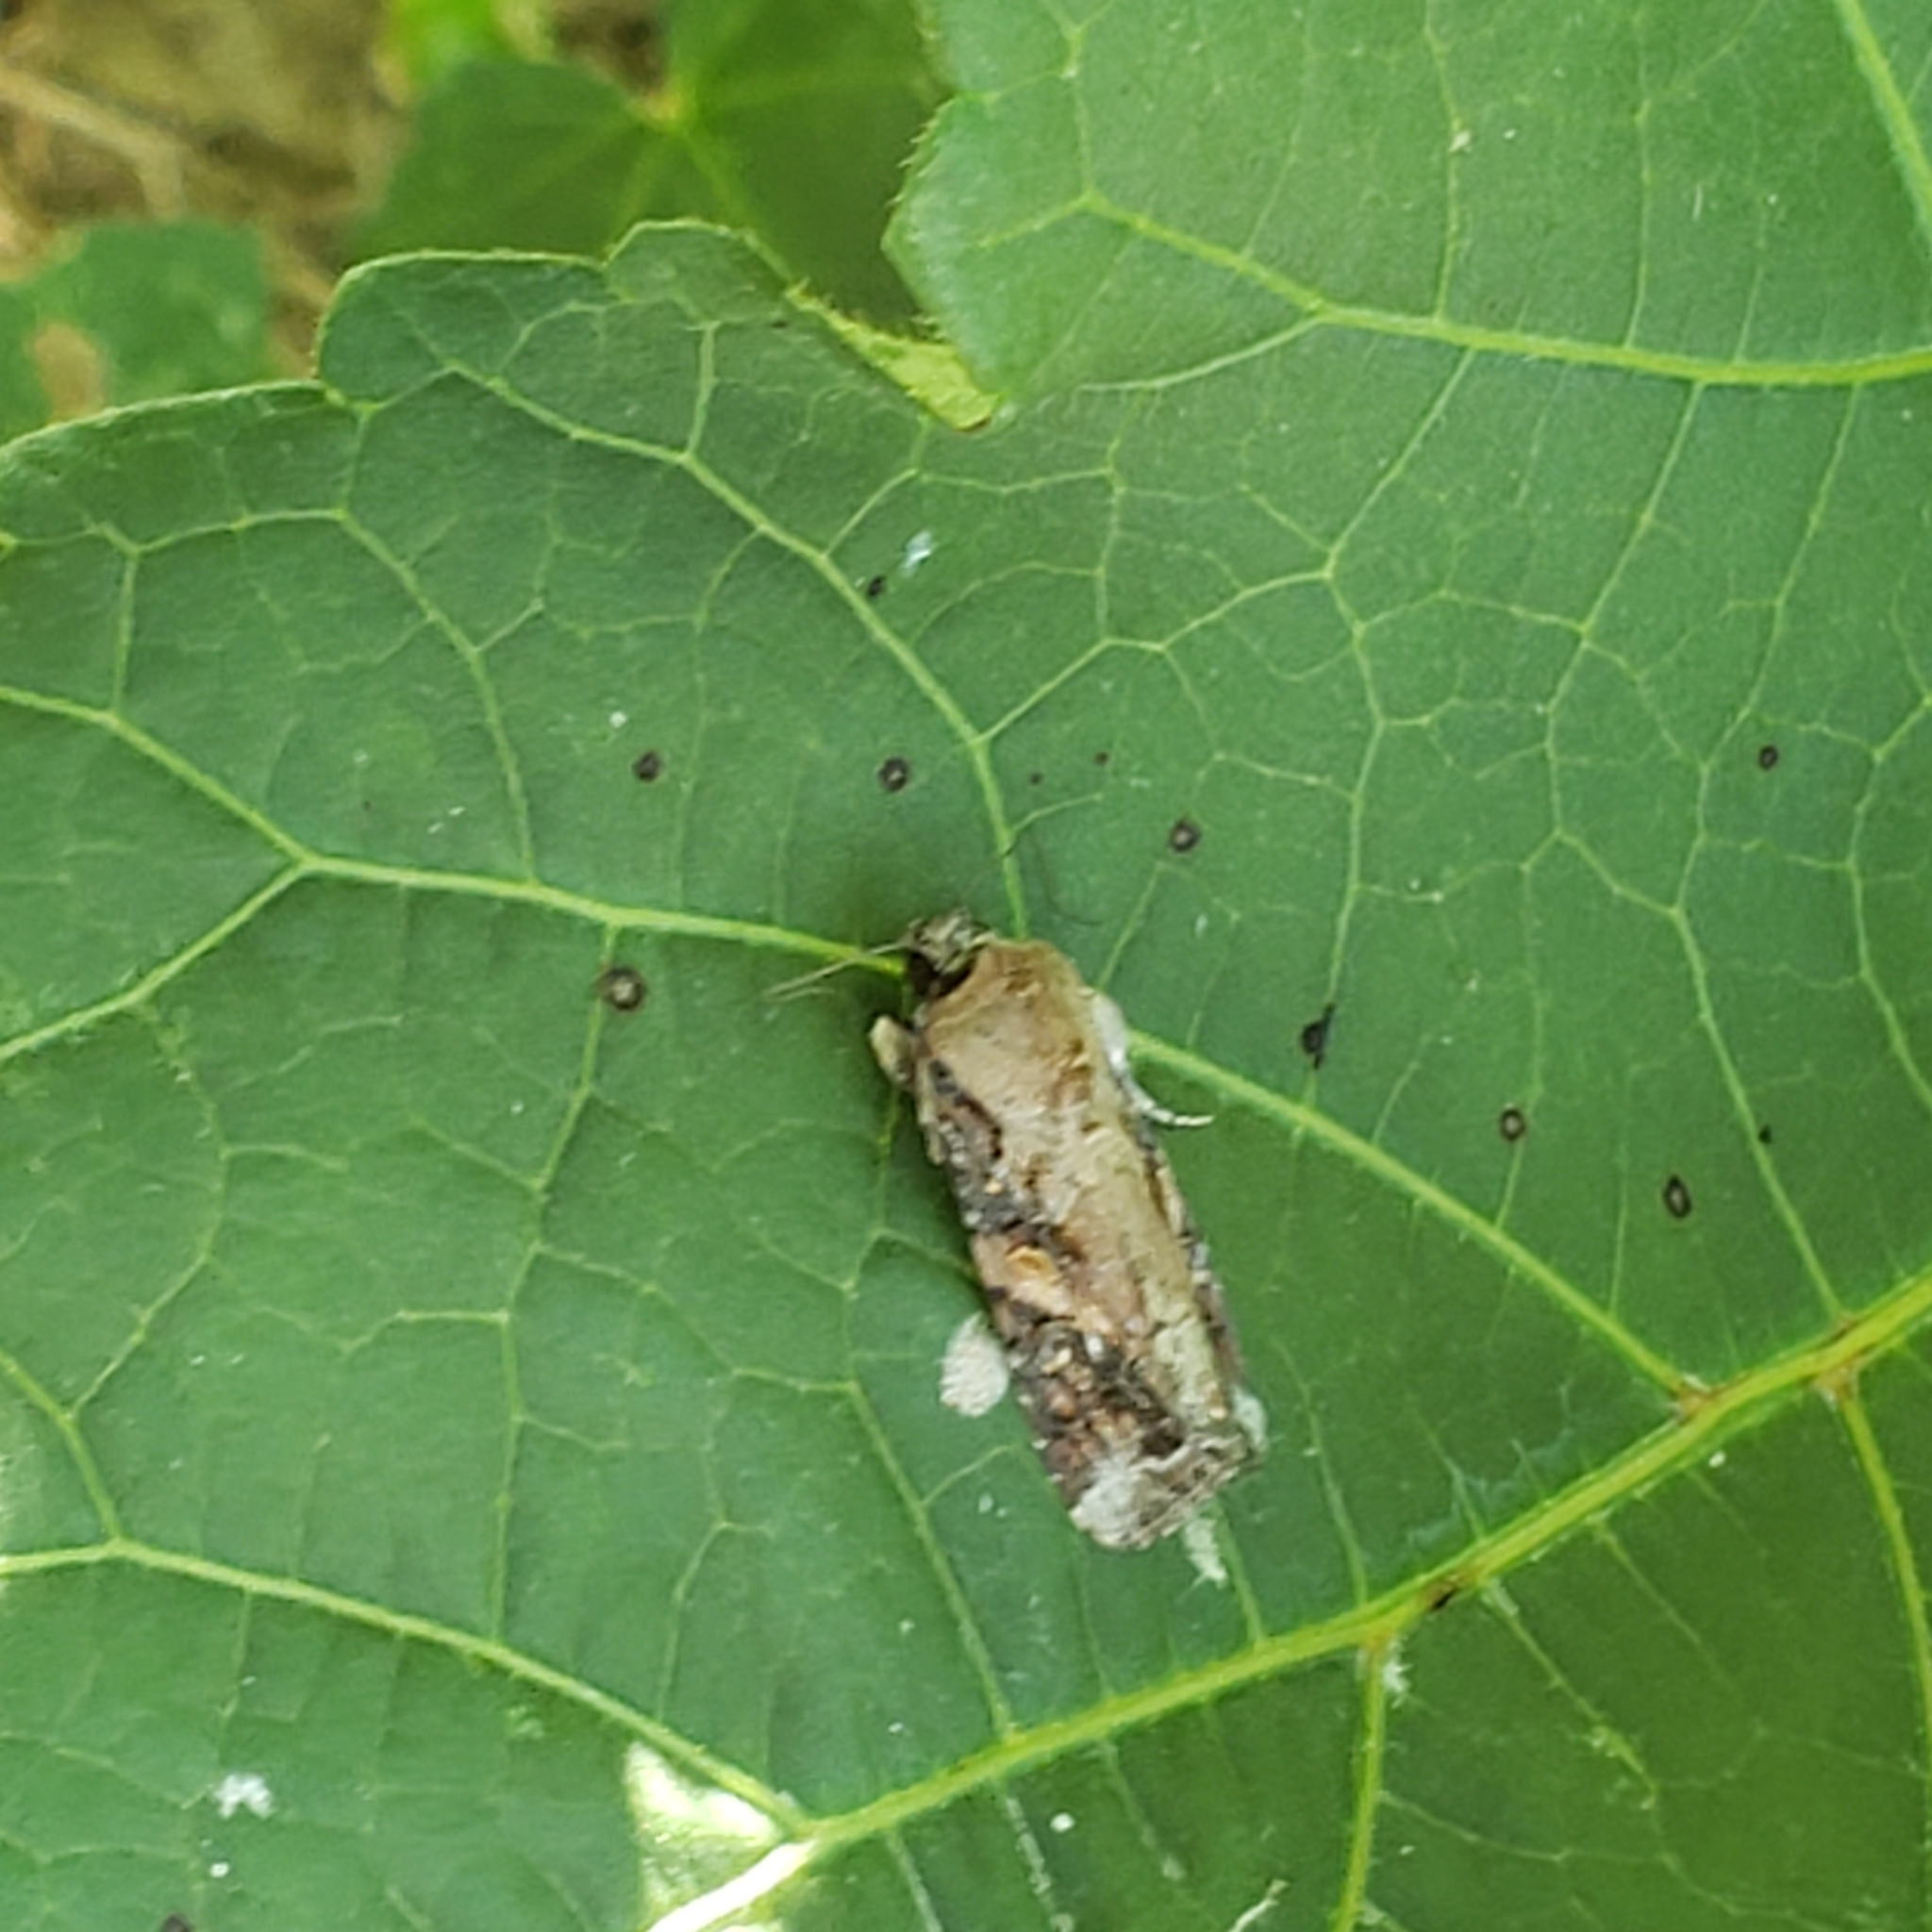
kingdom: Animalia
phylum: Arthropoda
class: Insecta
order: Lepidoptera
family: Noctuidae
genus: Spodoptera
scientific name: Spodoptera frugiperda
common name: Fall armyworm
